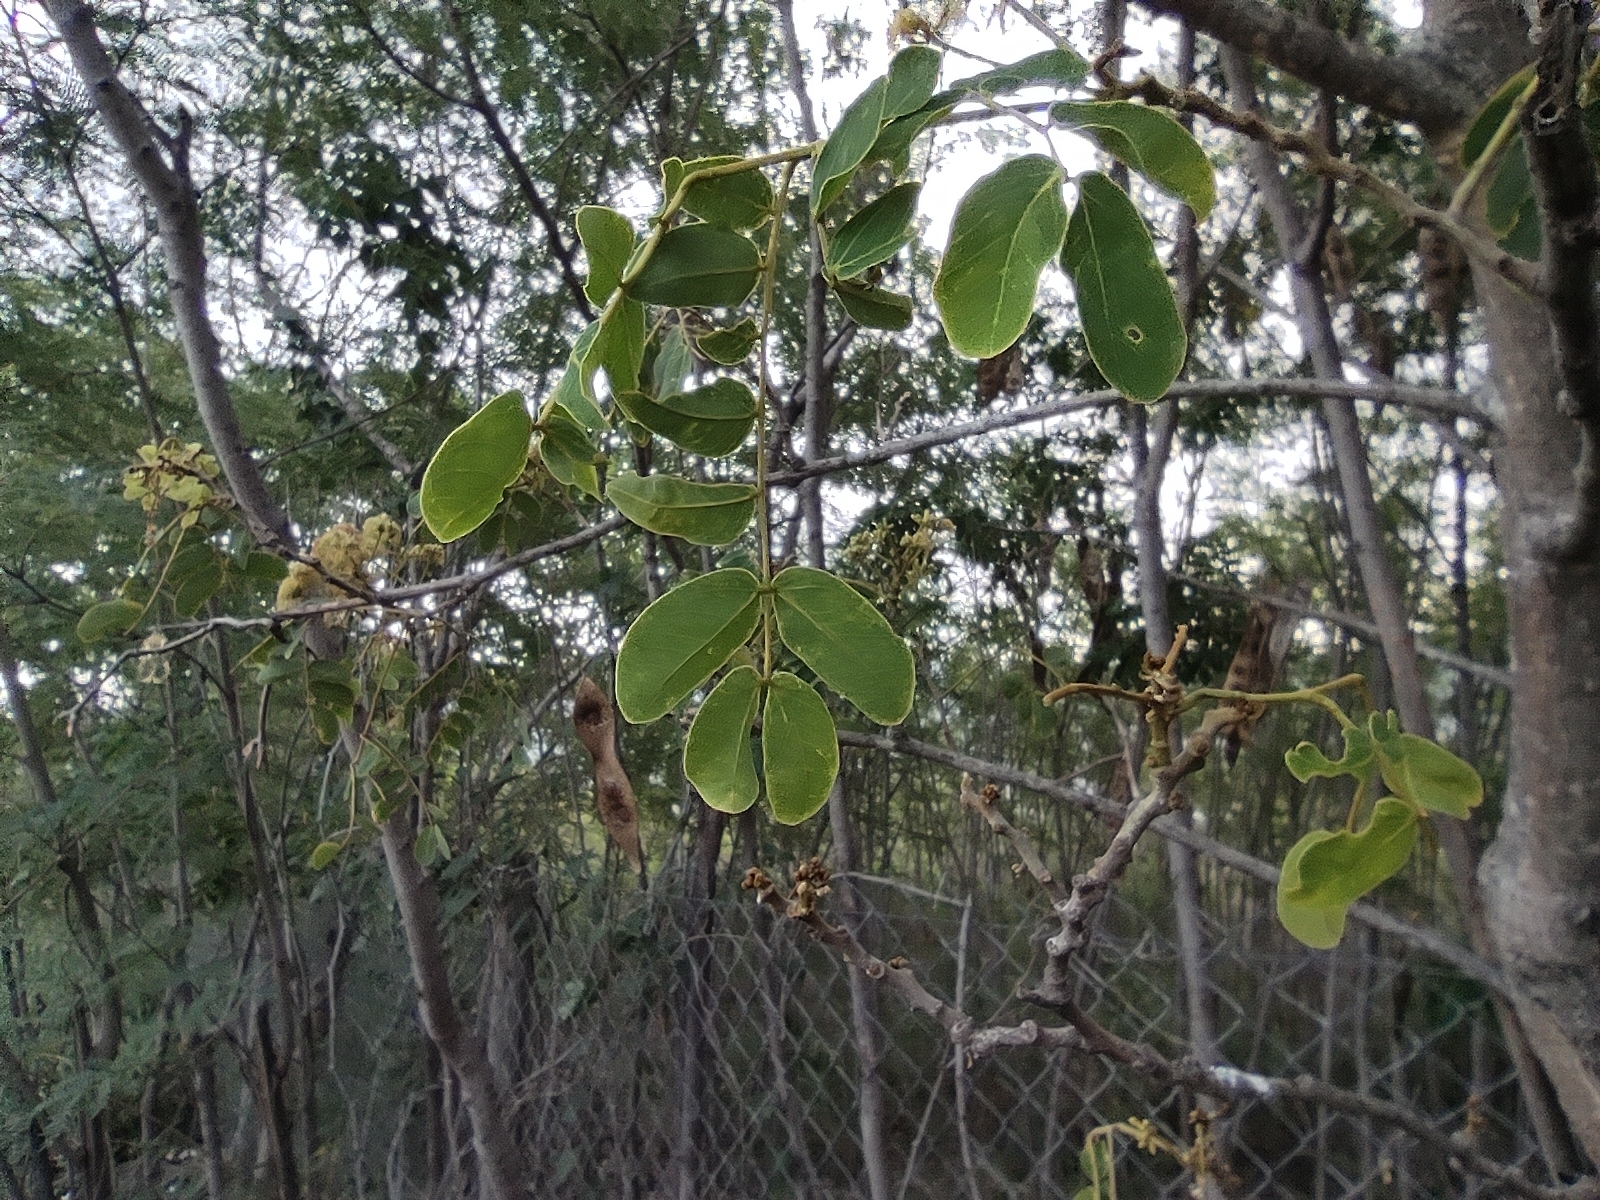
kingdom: Plantae
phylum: Tracheophyta
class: Magnoliopsida
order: Fabales
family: Fabaceae
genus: Albizia
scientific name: Albizia lebbeck
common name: Woman's tongue
